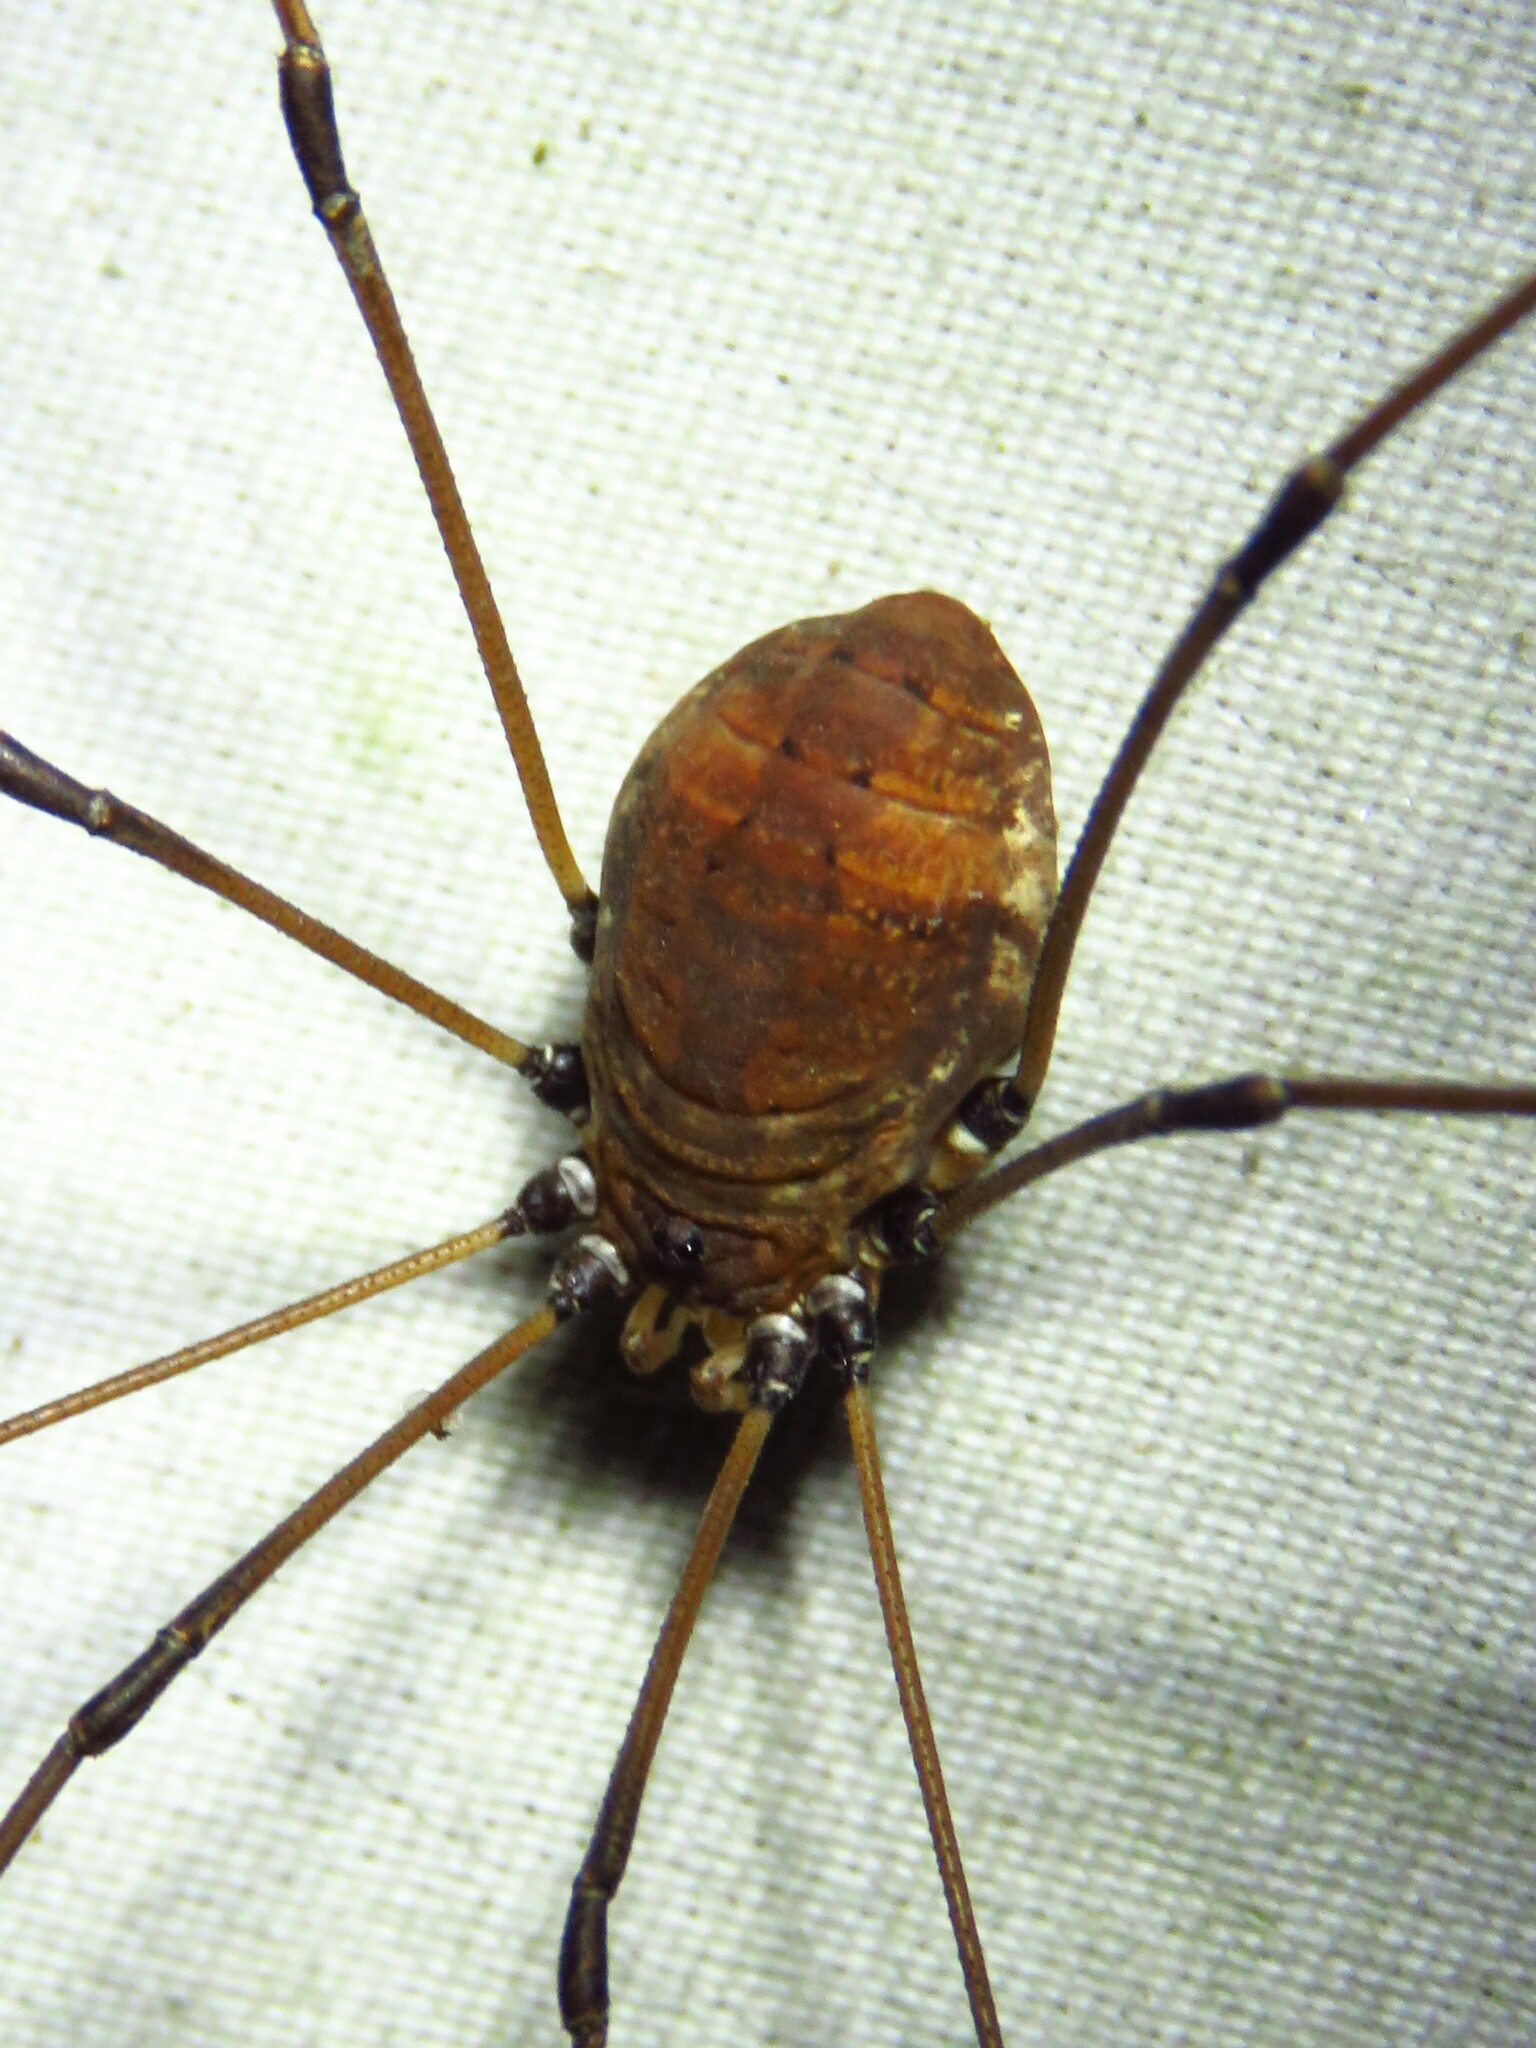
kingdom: Animalia
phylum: Arthropoda
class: Arachnida
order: Opiliones
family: Sclerosomatidae
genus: Leiobunum
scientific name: Leiobunum ventricosum
